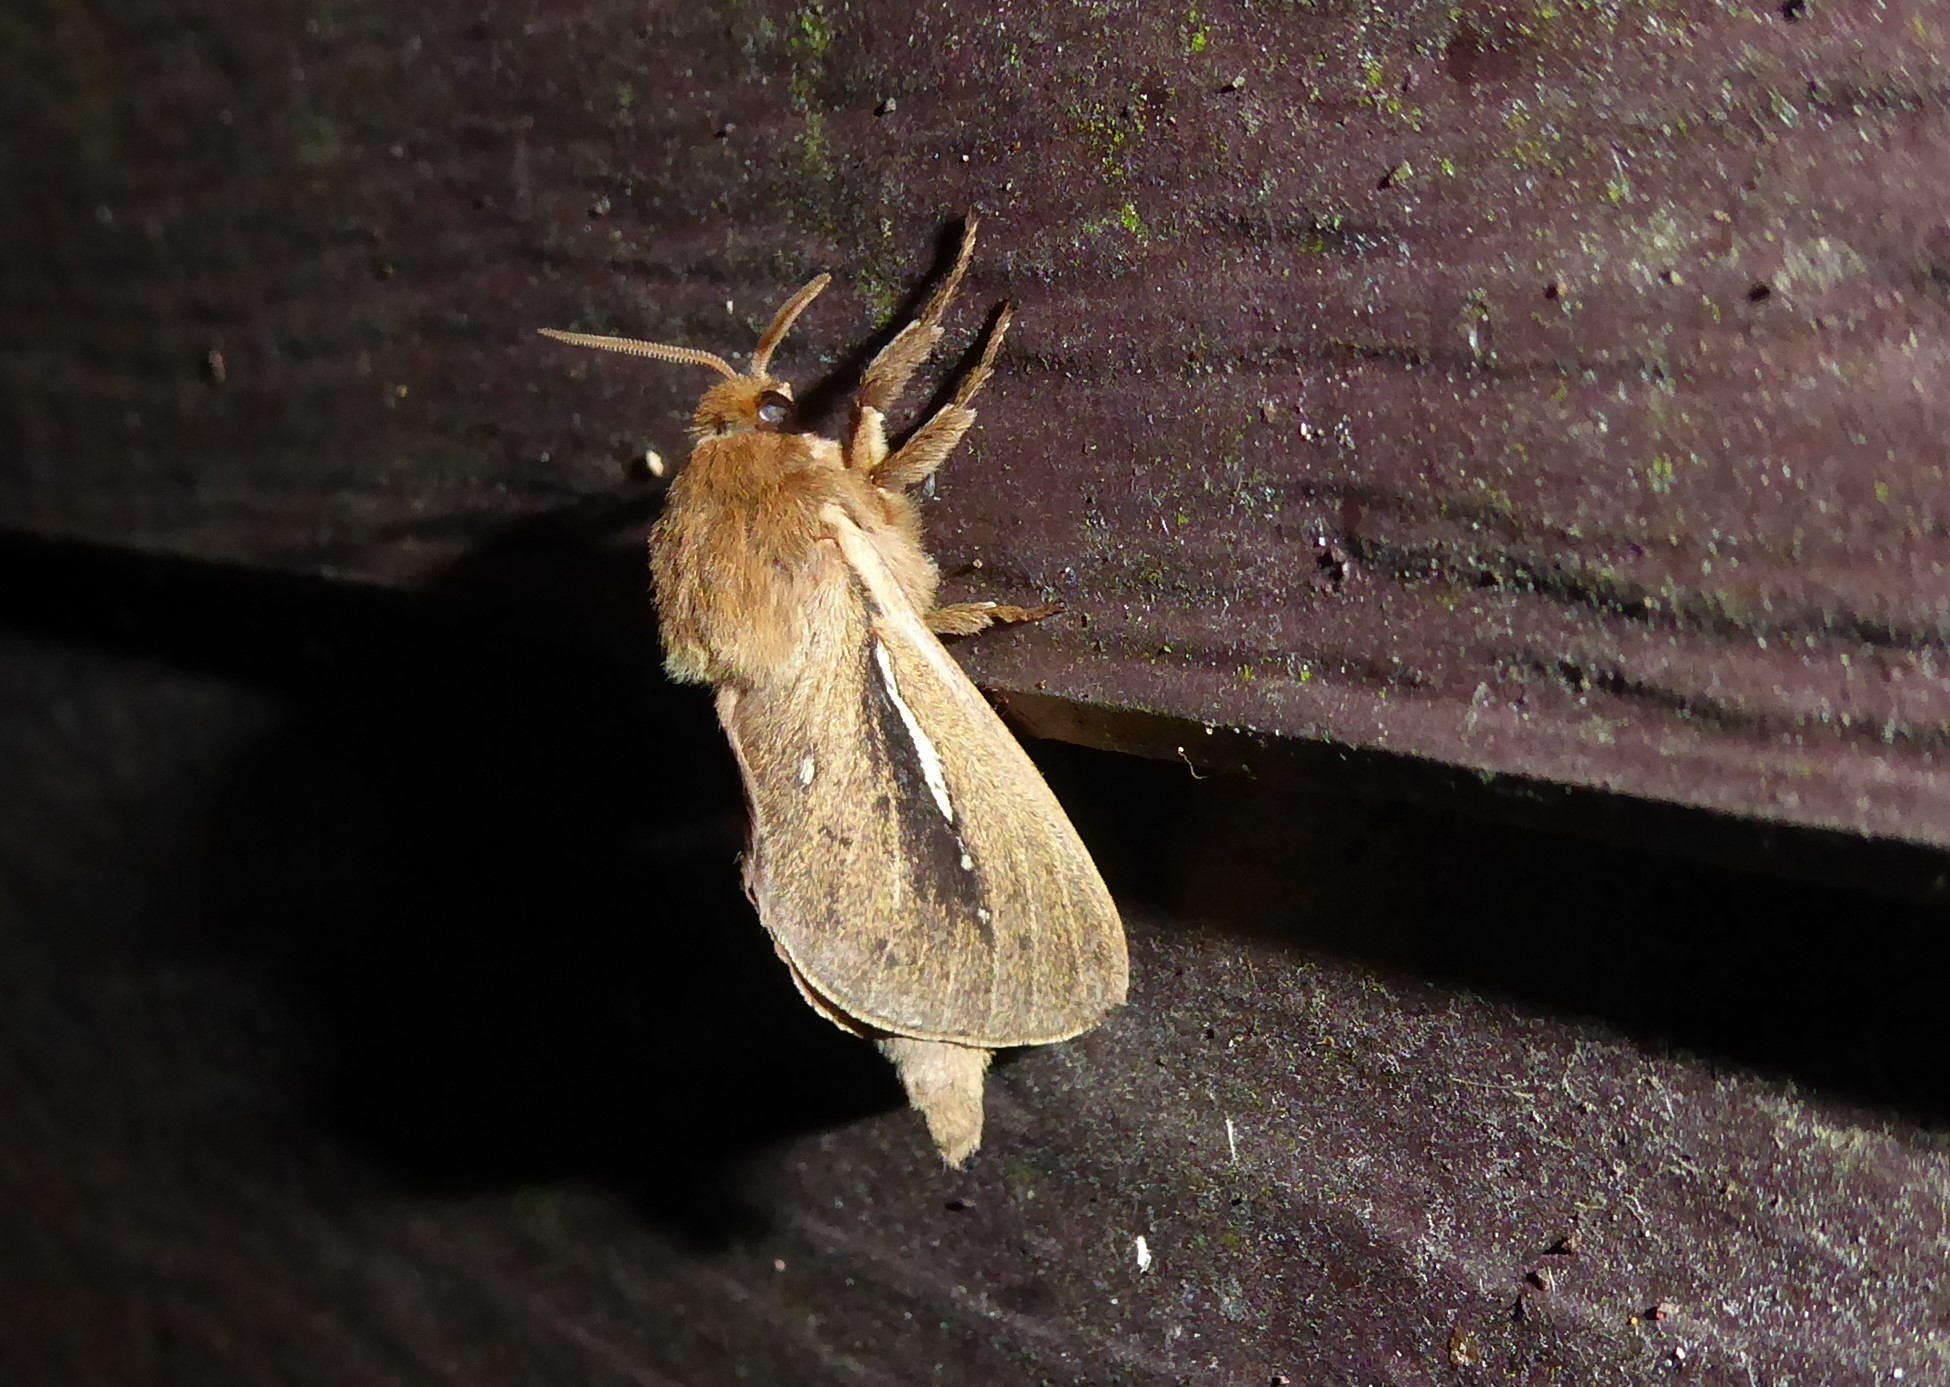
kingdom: Animalia
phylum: Arthropoda
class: Insecta
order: Lepidoptera
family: Hepialidae
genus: Wiseana
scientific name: Wiseana umbraculatus
